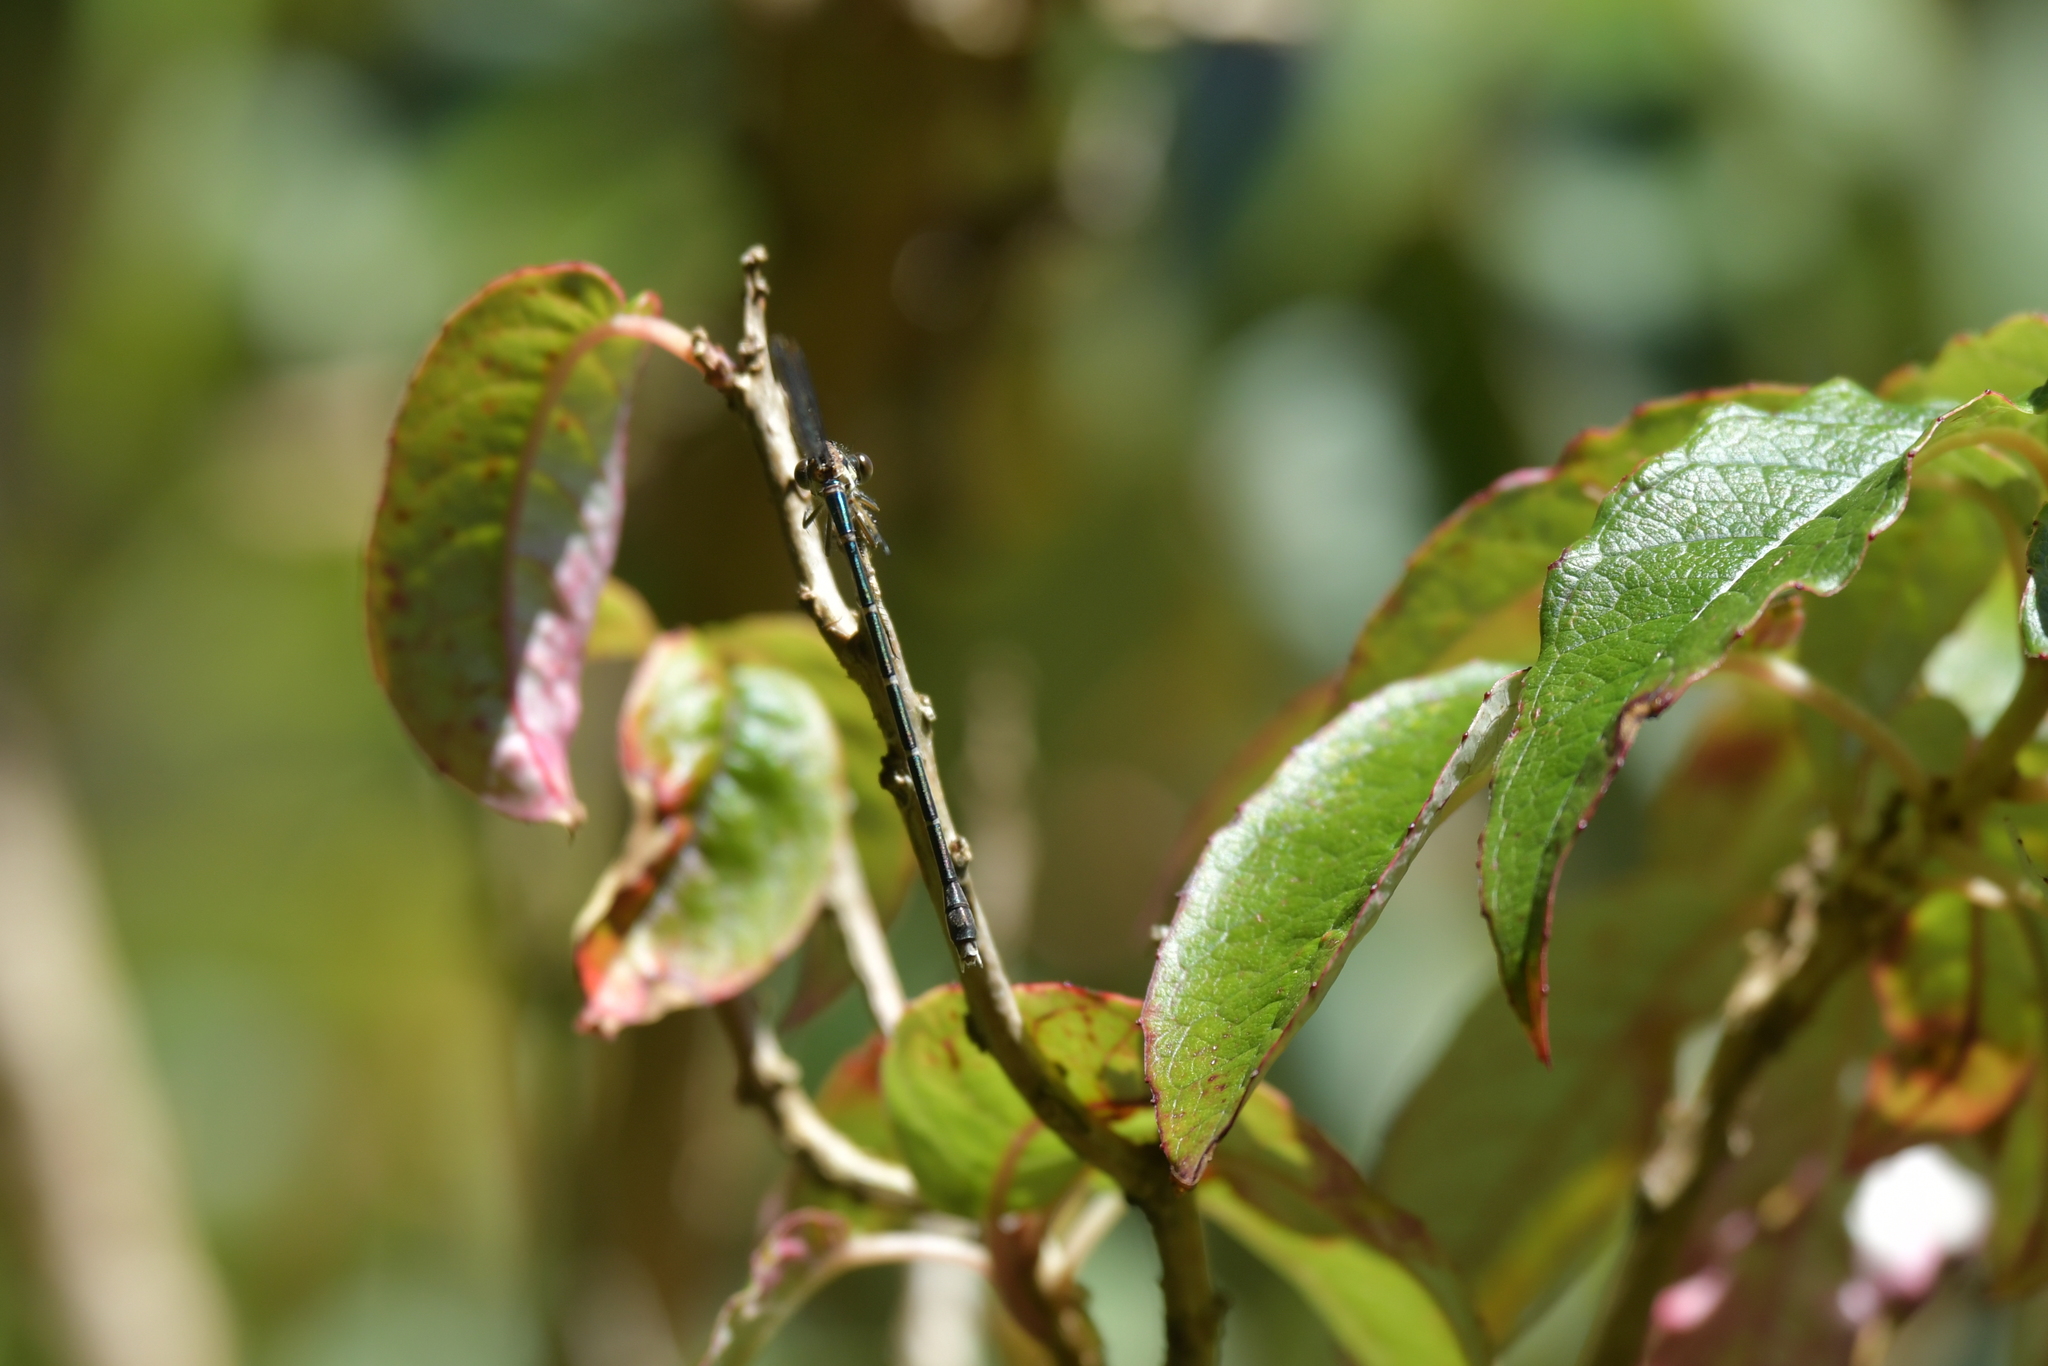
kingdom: Animalia
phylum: Arthropoda
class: Insecta
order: Odonata
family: Lestidae
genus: Austrolestes
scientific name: Austrolestes colensonis
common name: Blue damselfly
